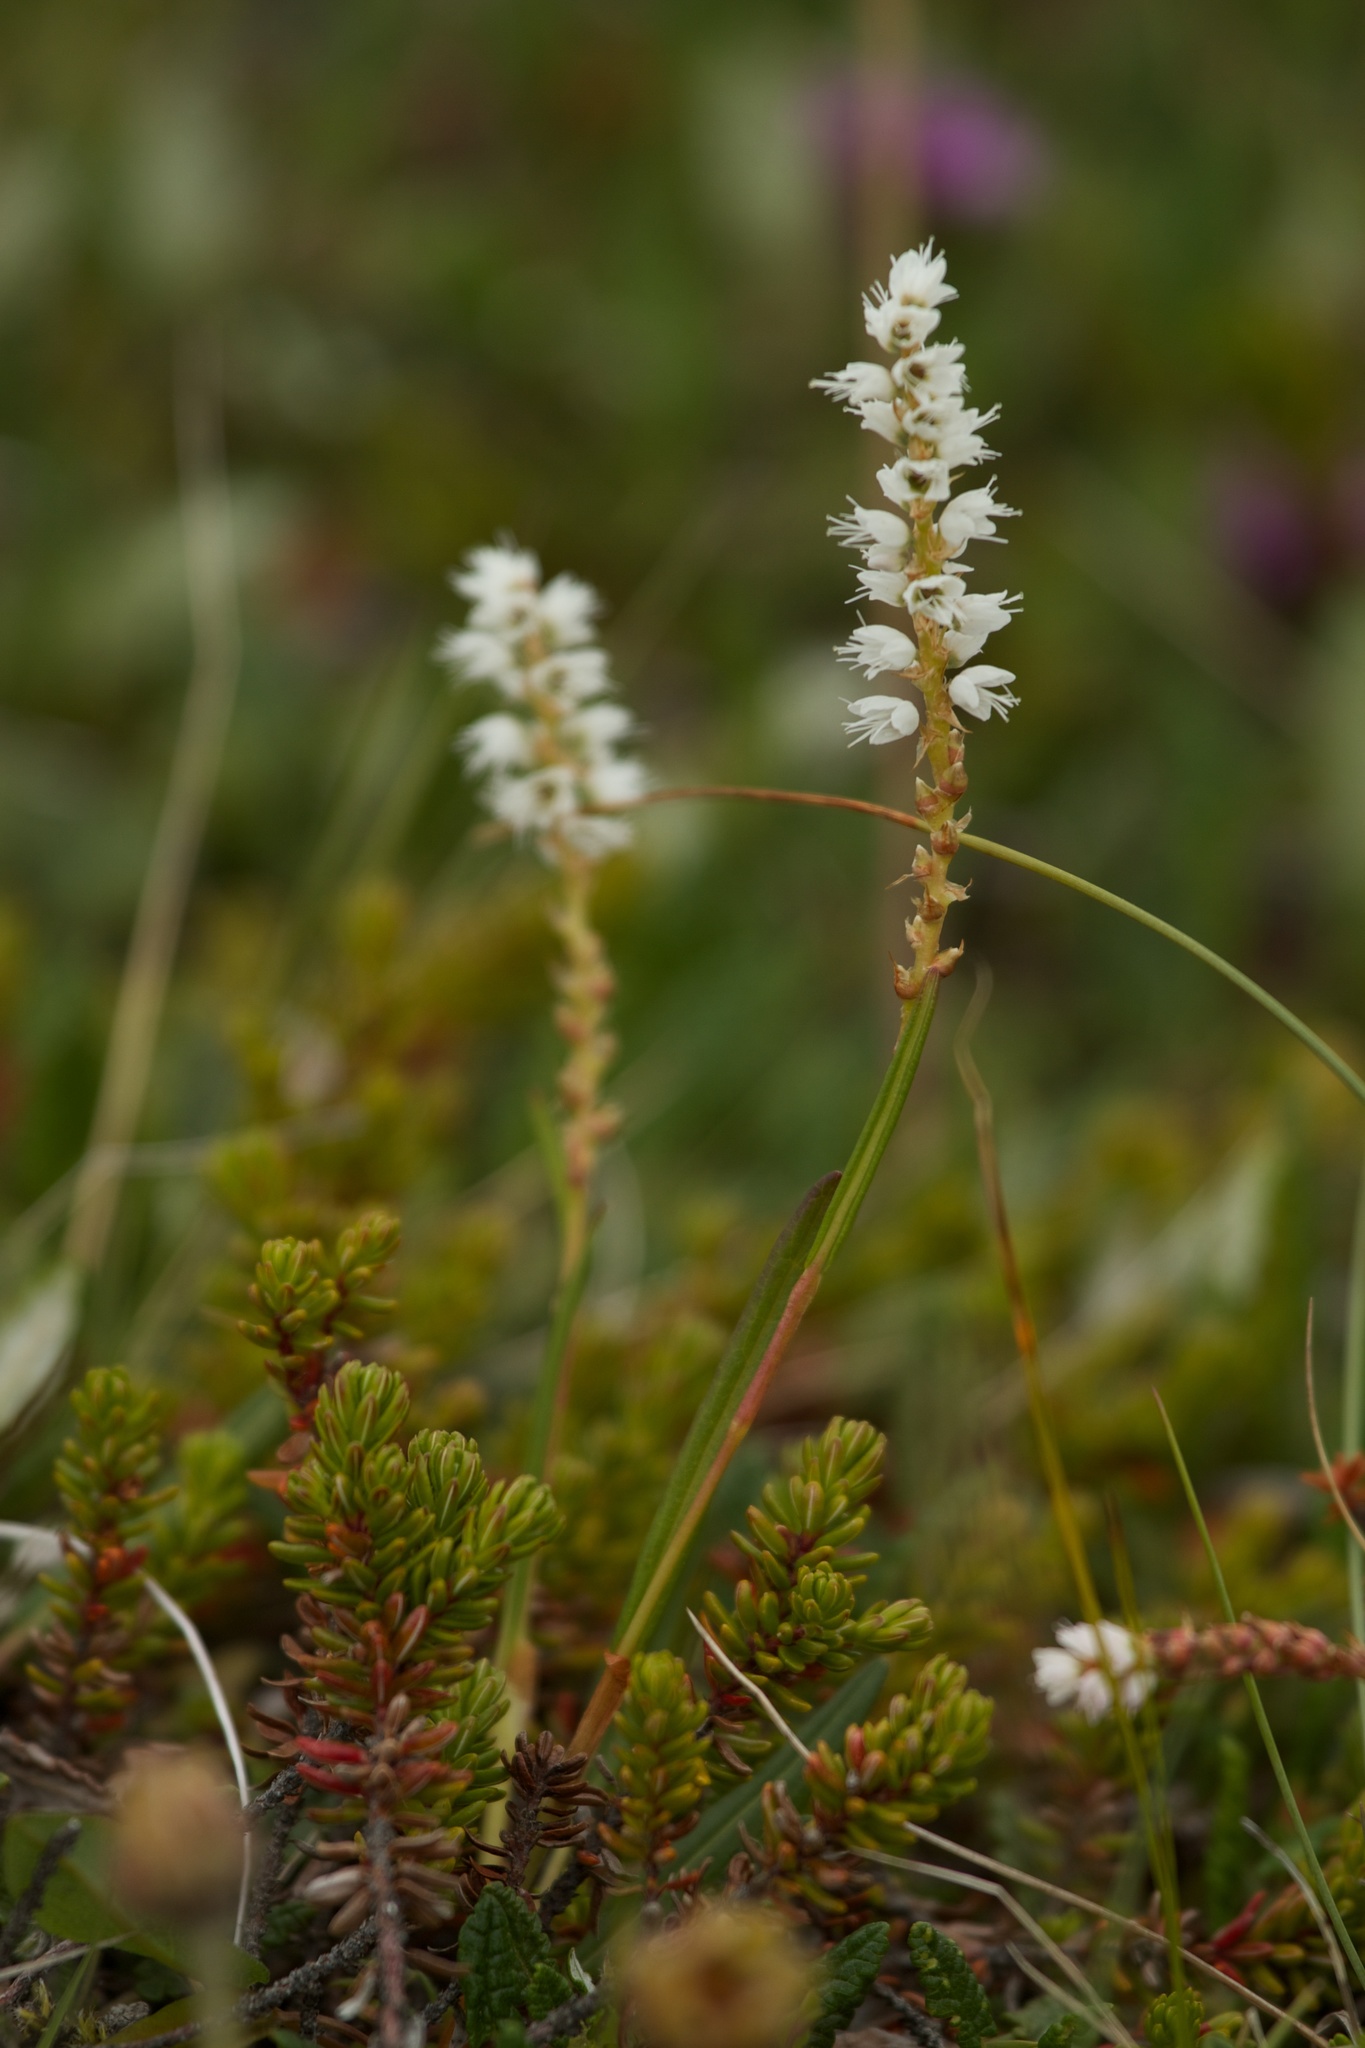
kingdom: Plantae
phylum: Tracheophyta
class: Magnoliopsida
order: Caryophyllales
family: Polygonaceae
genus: Bistorta
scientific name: Bistorta vivipara
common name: Alpine bistort
